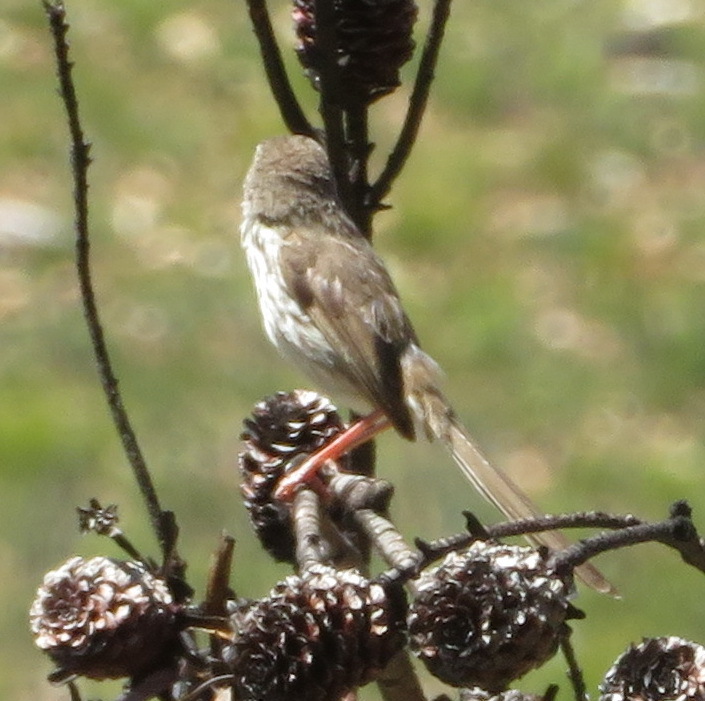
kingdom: Animalia
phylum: Chordata
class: Aves
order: Passeriformes
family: Cisticolidae
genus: Prinia
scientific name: Prinia maculosa
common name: Karoo prinia
